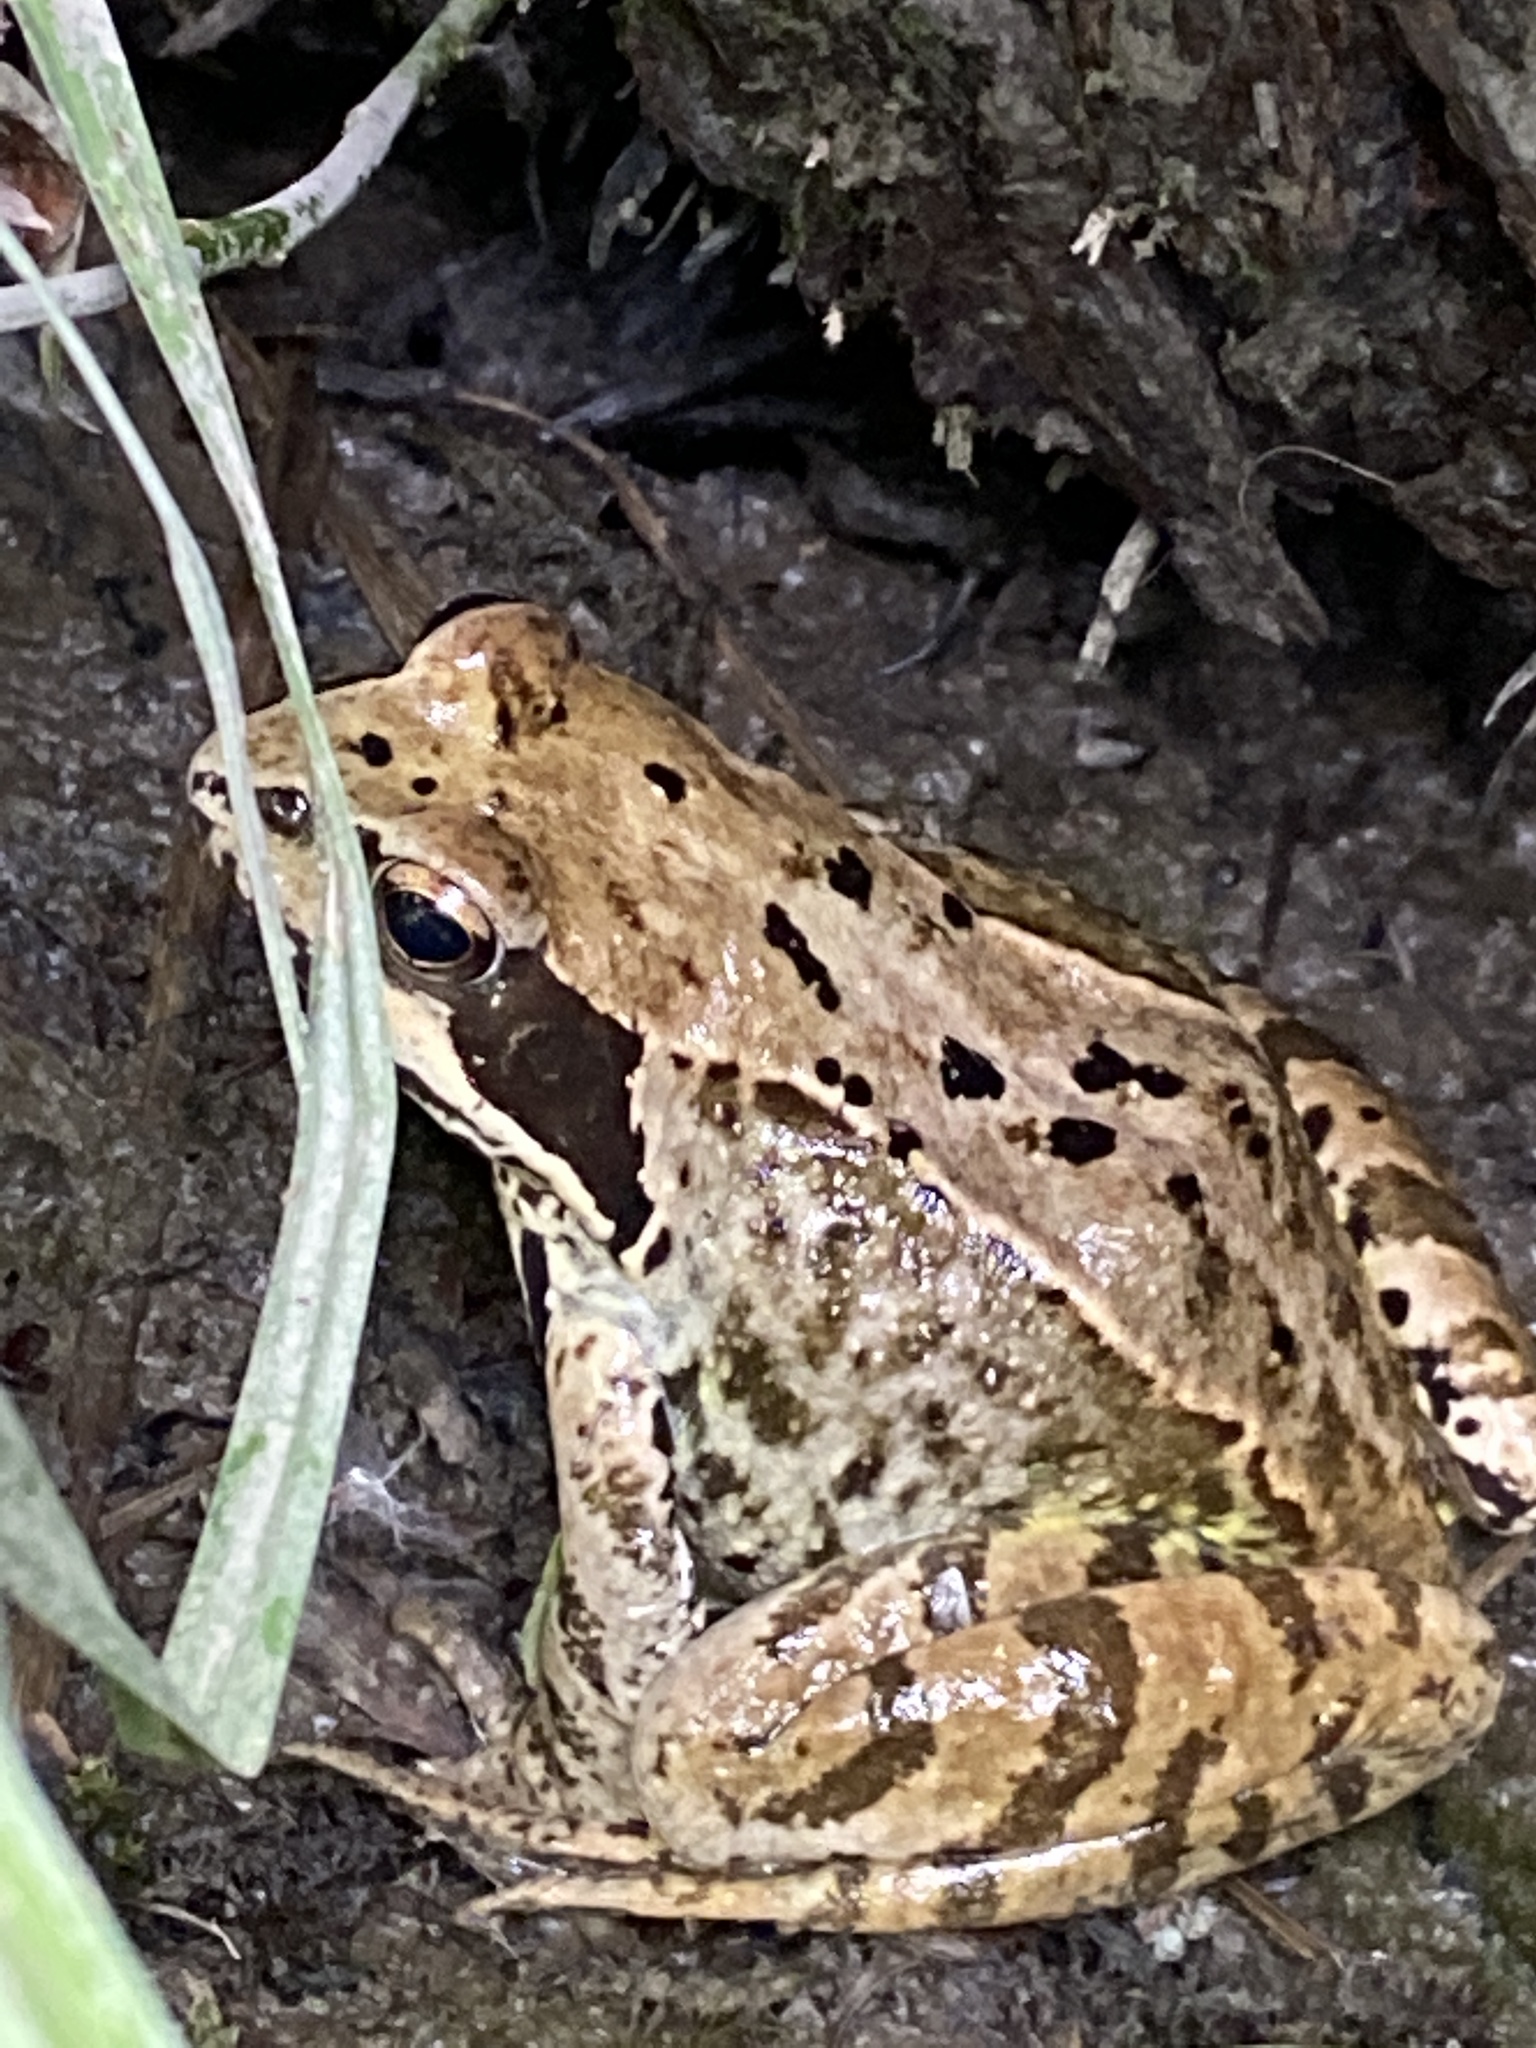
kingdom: Animalia
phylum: Chordata
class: Amphibia
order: Anura
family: Ranidae
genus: Rana
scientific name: Rana temporaria
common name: Common frog
